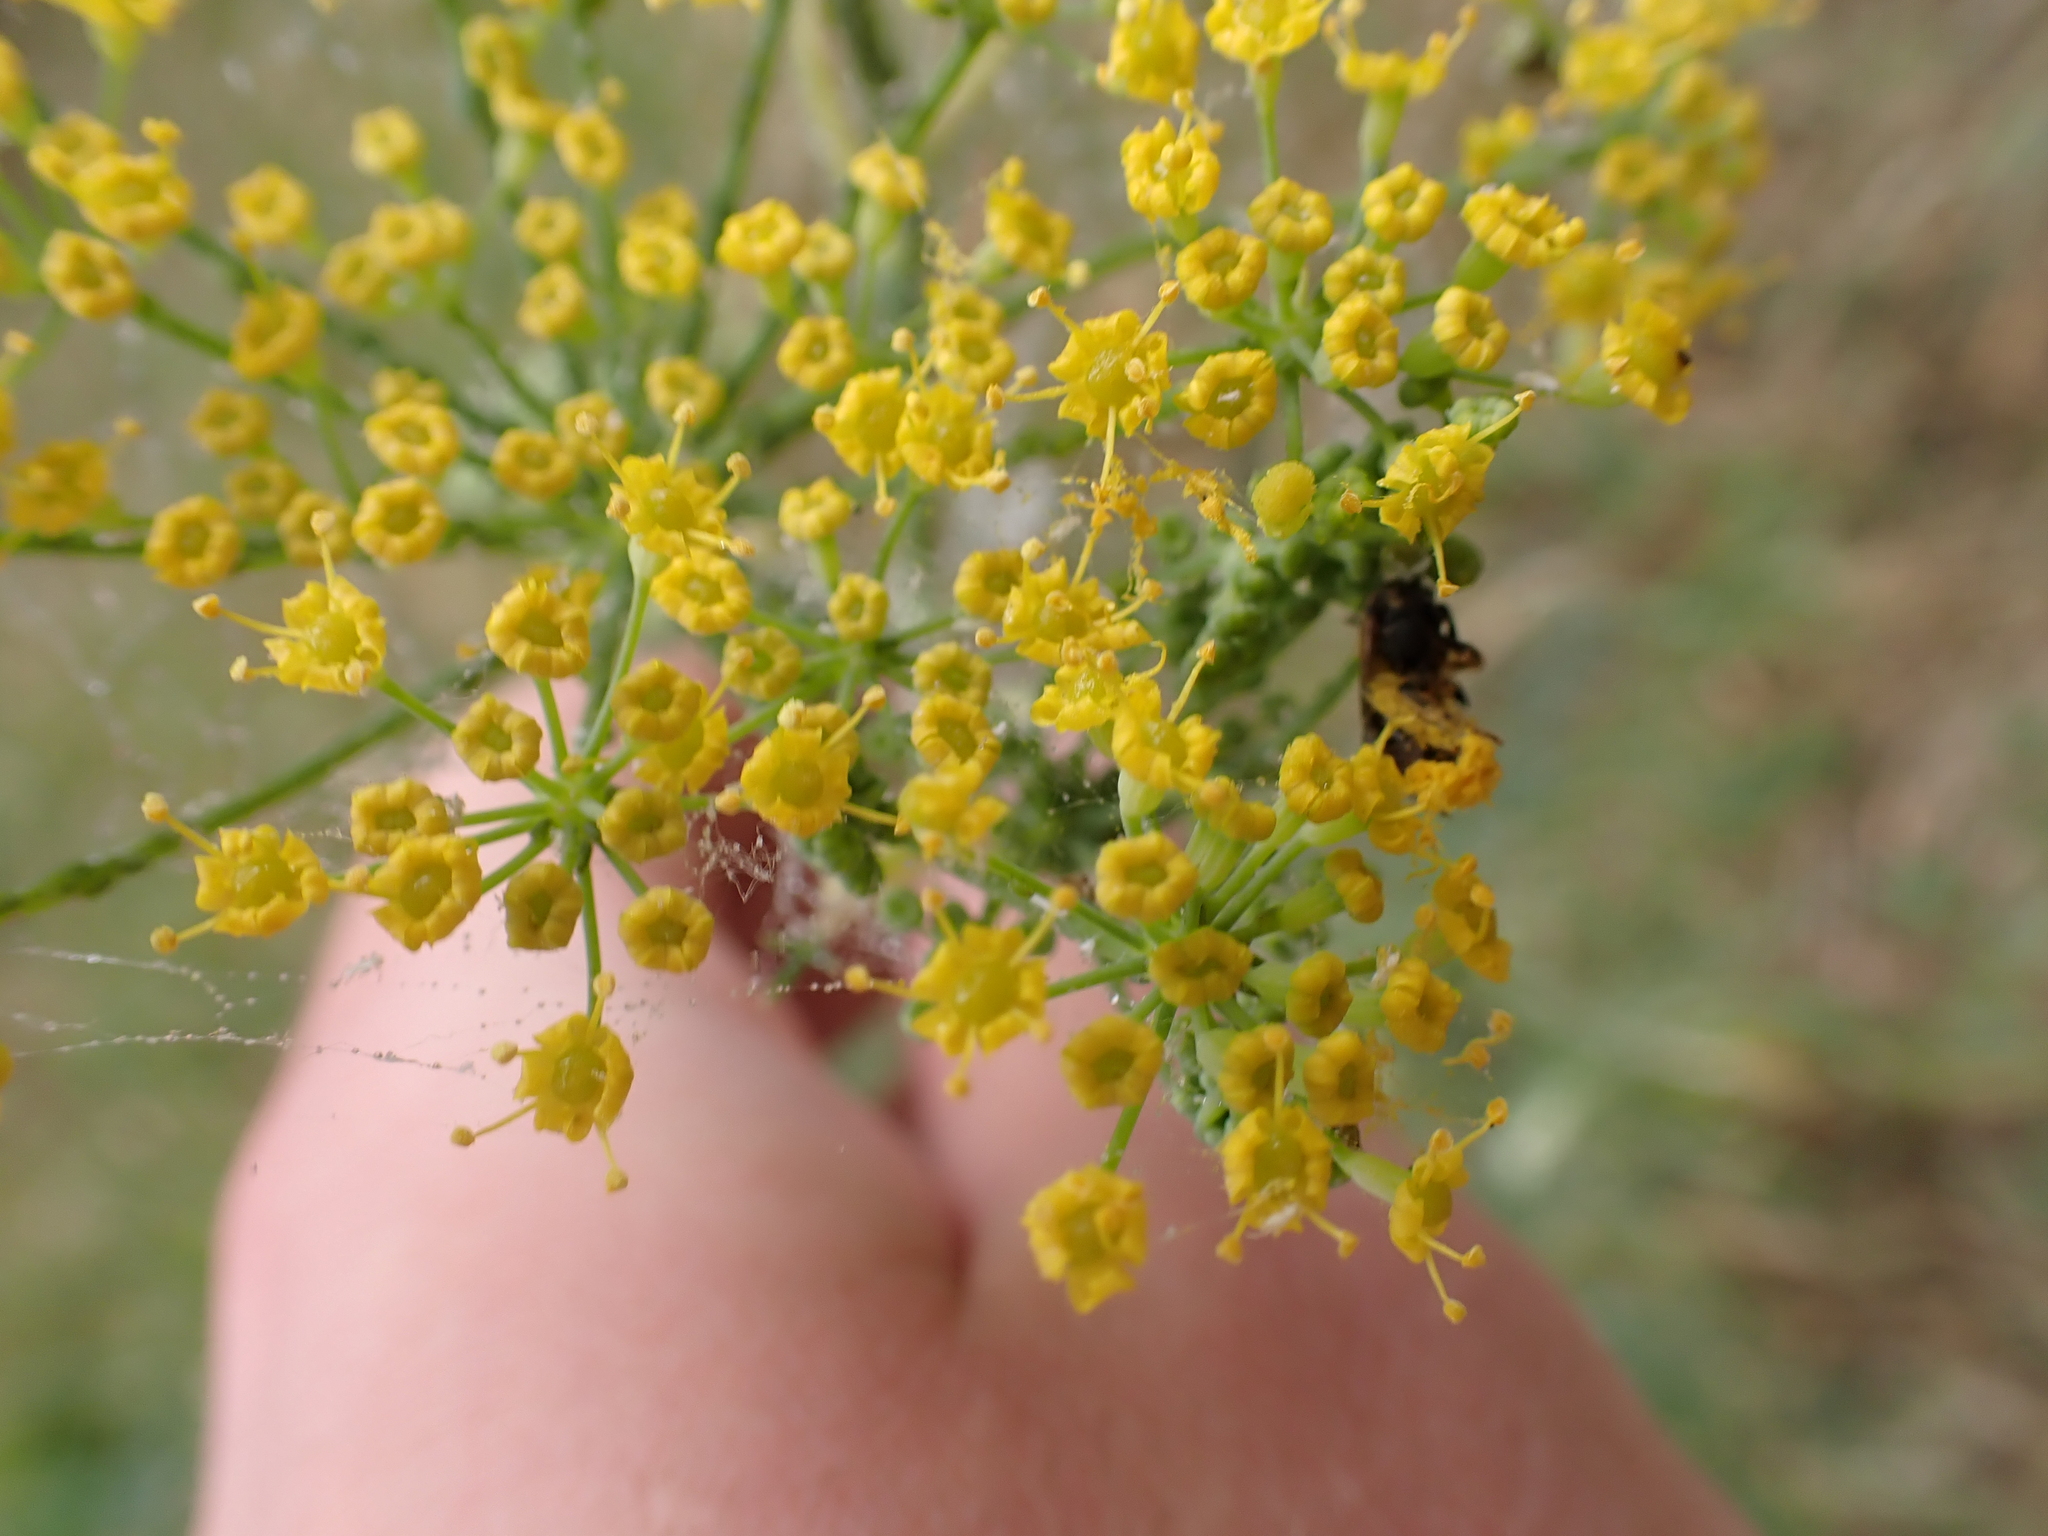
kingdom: Plantae
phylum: Tracheophyta
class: Magnoliopsida
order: Apiales
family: Apiaceae
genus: Foeniculum
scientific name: Foeniculum vulgare
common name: Fennel
